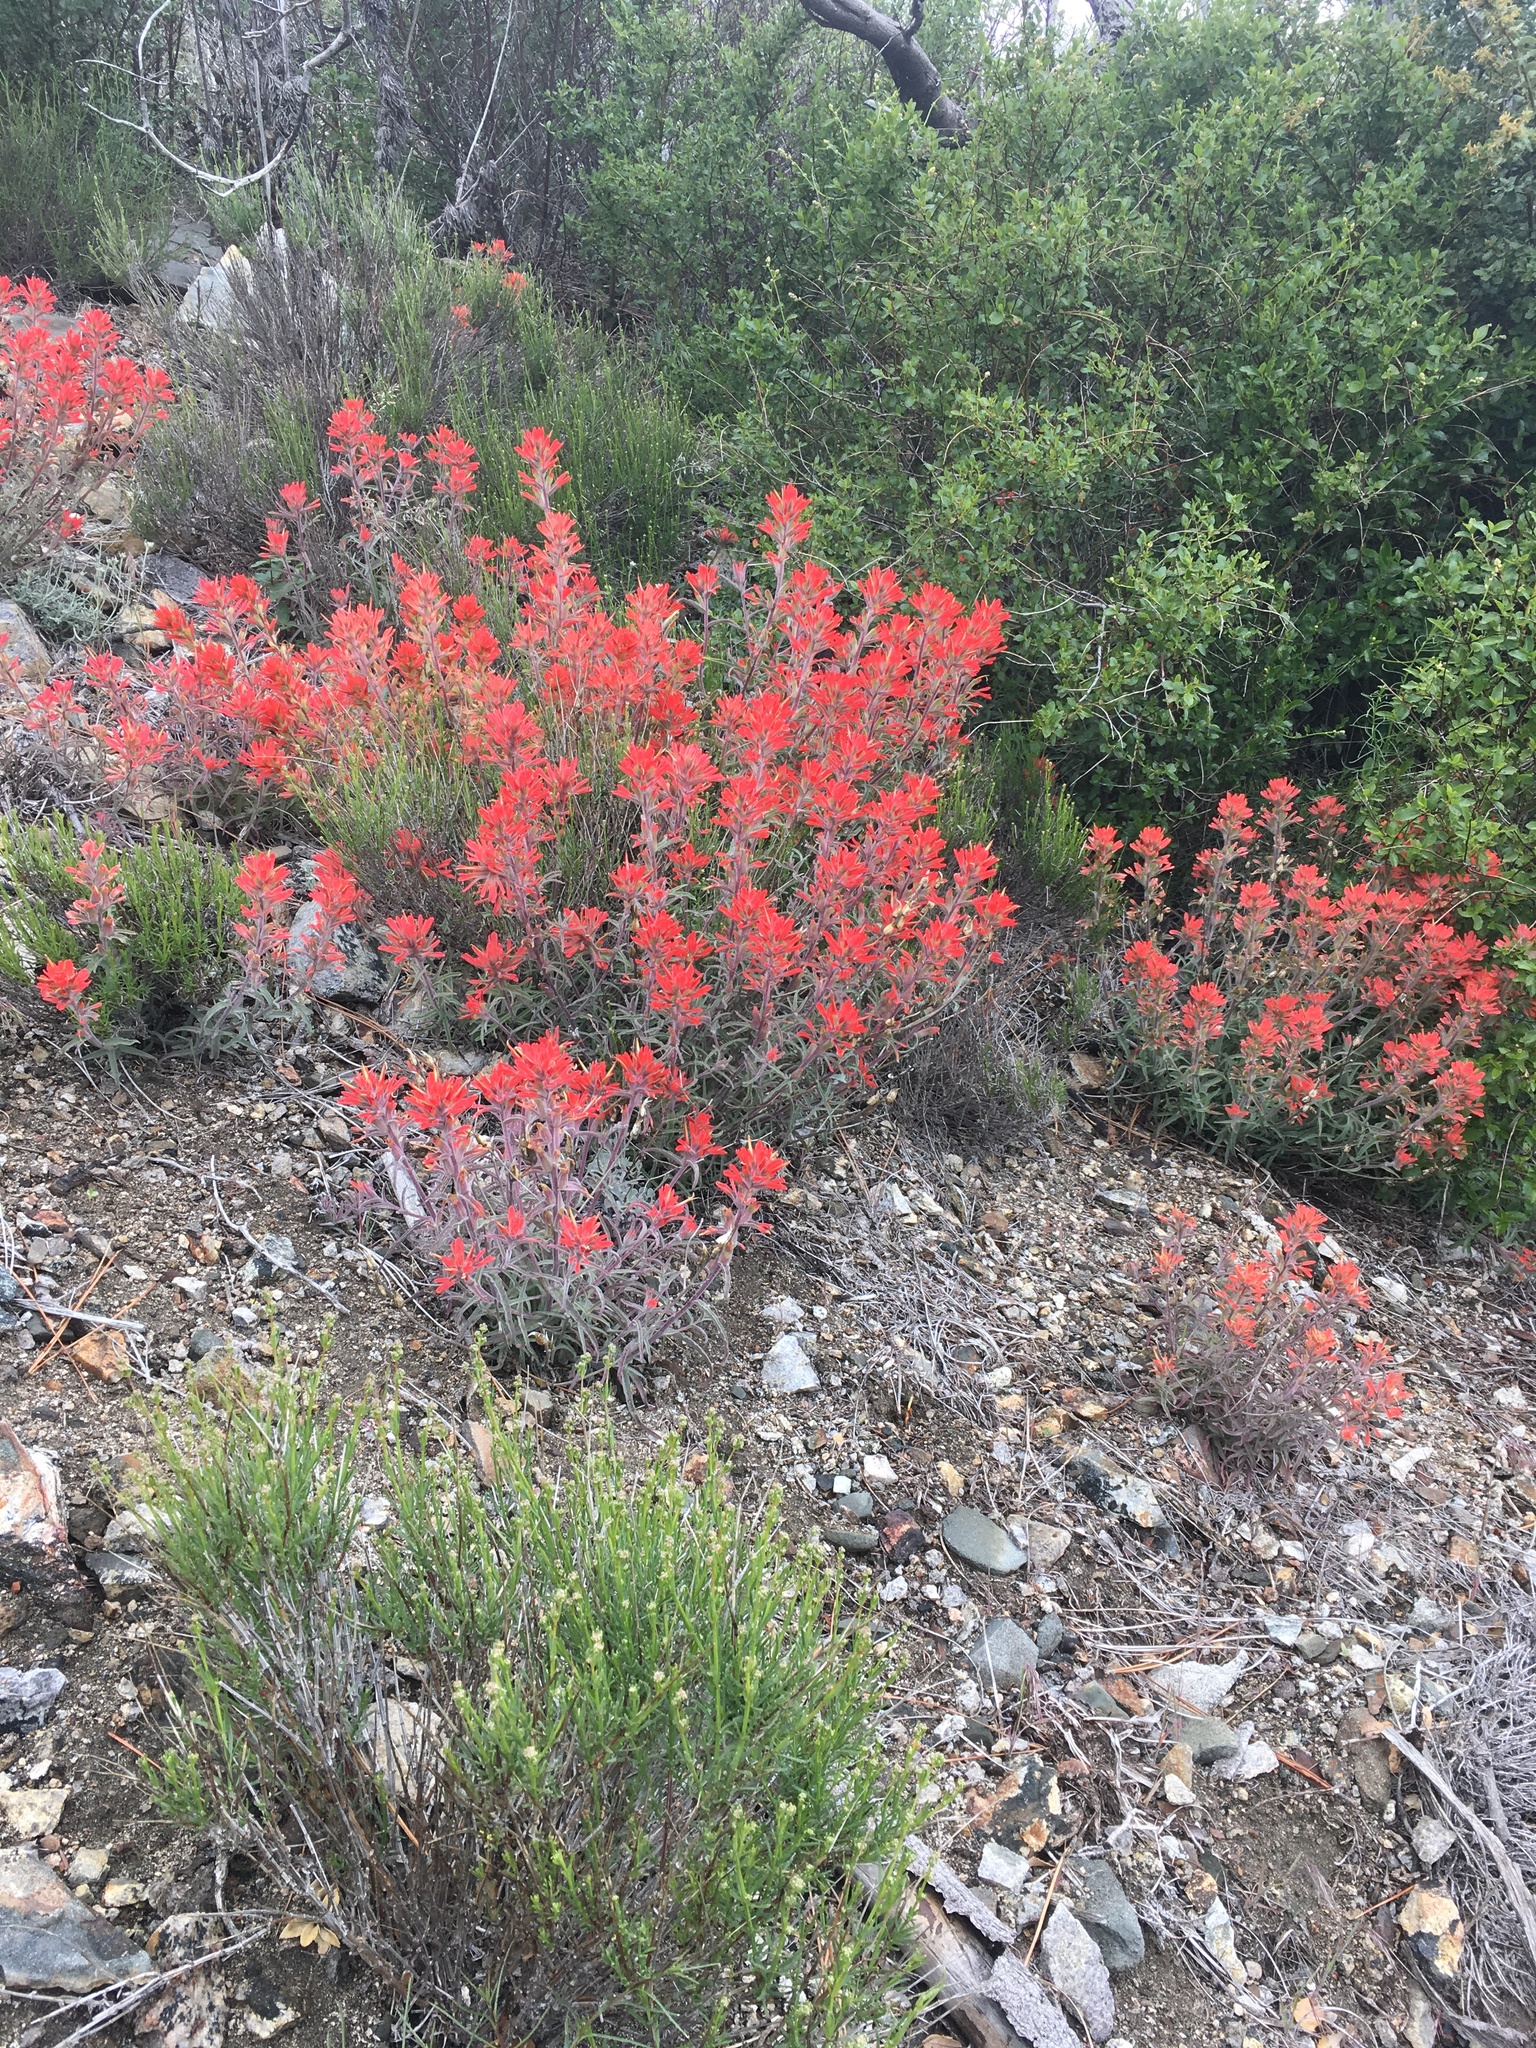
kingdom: Plantae
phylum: Tracheophyta
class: Magnoliopsida
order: Lamiales
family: Orobanchaceae
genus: Castilleja
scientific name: Castilleja gleasoni
